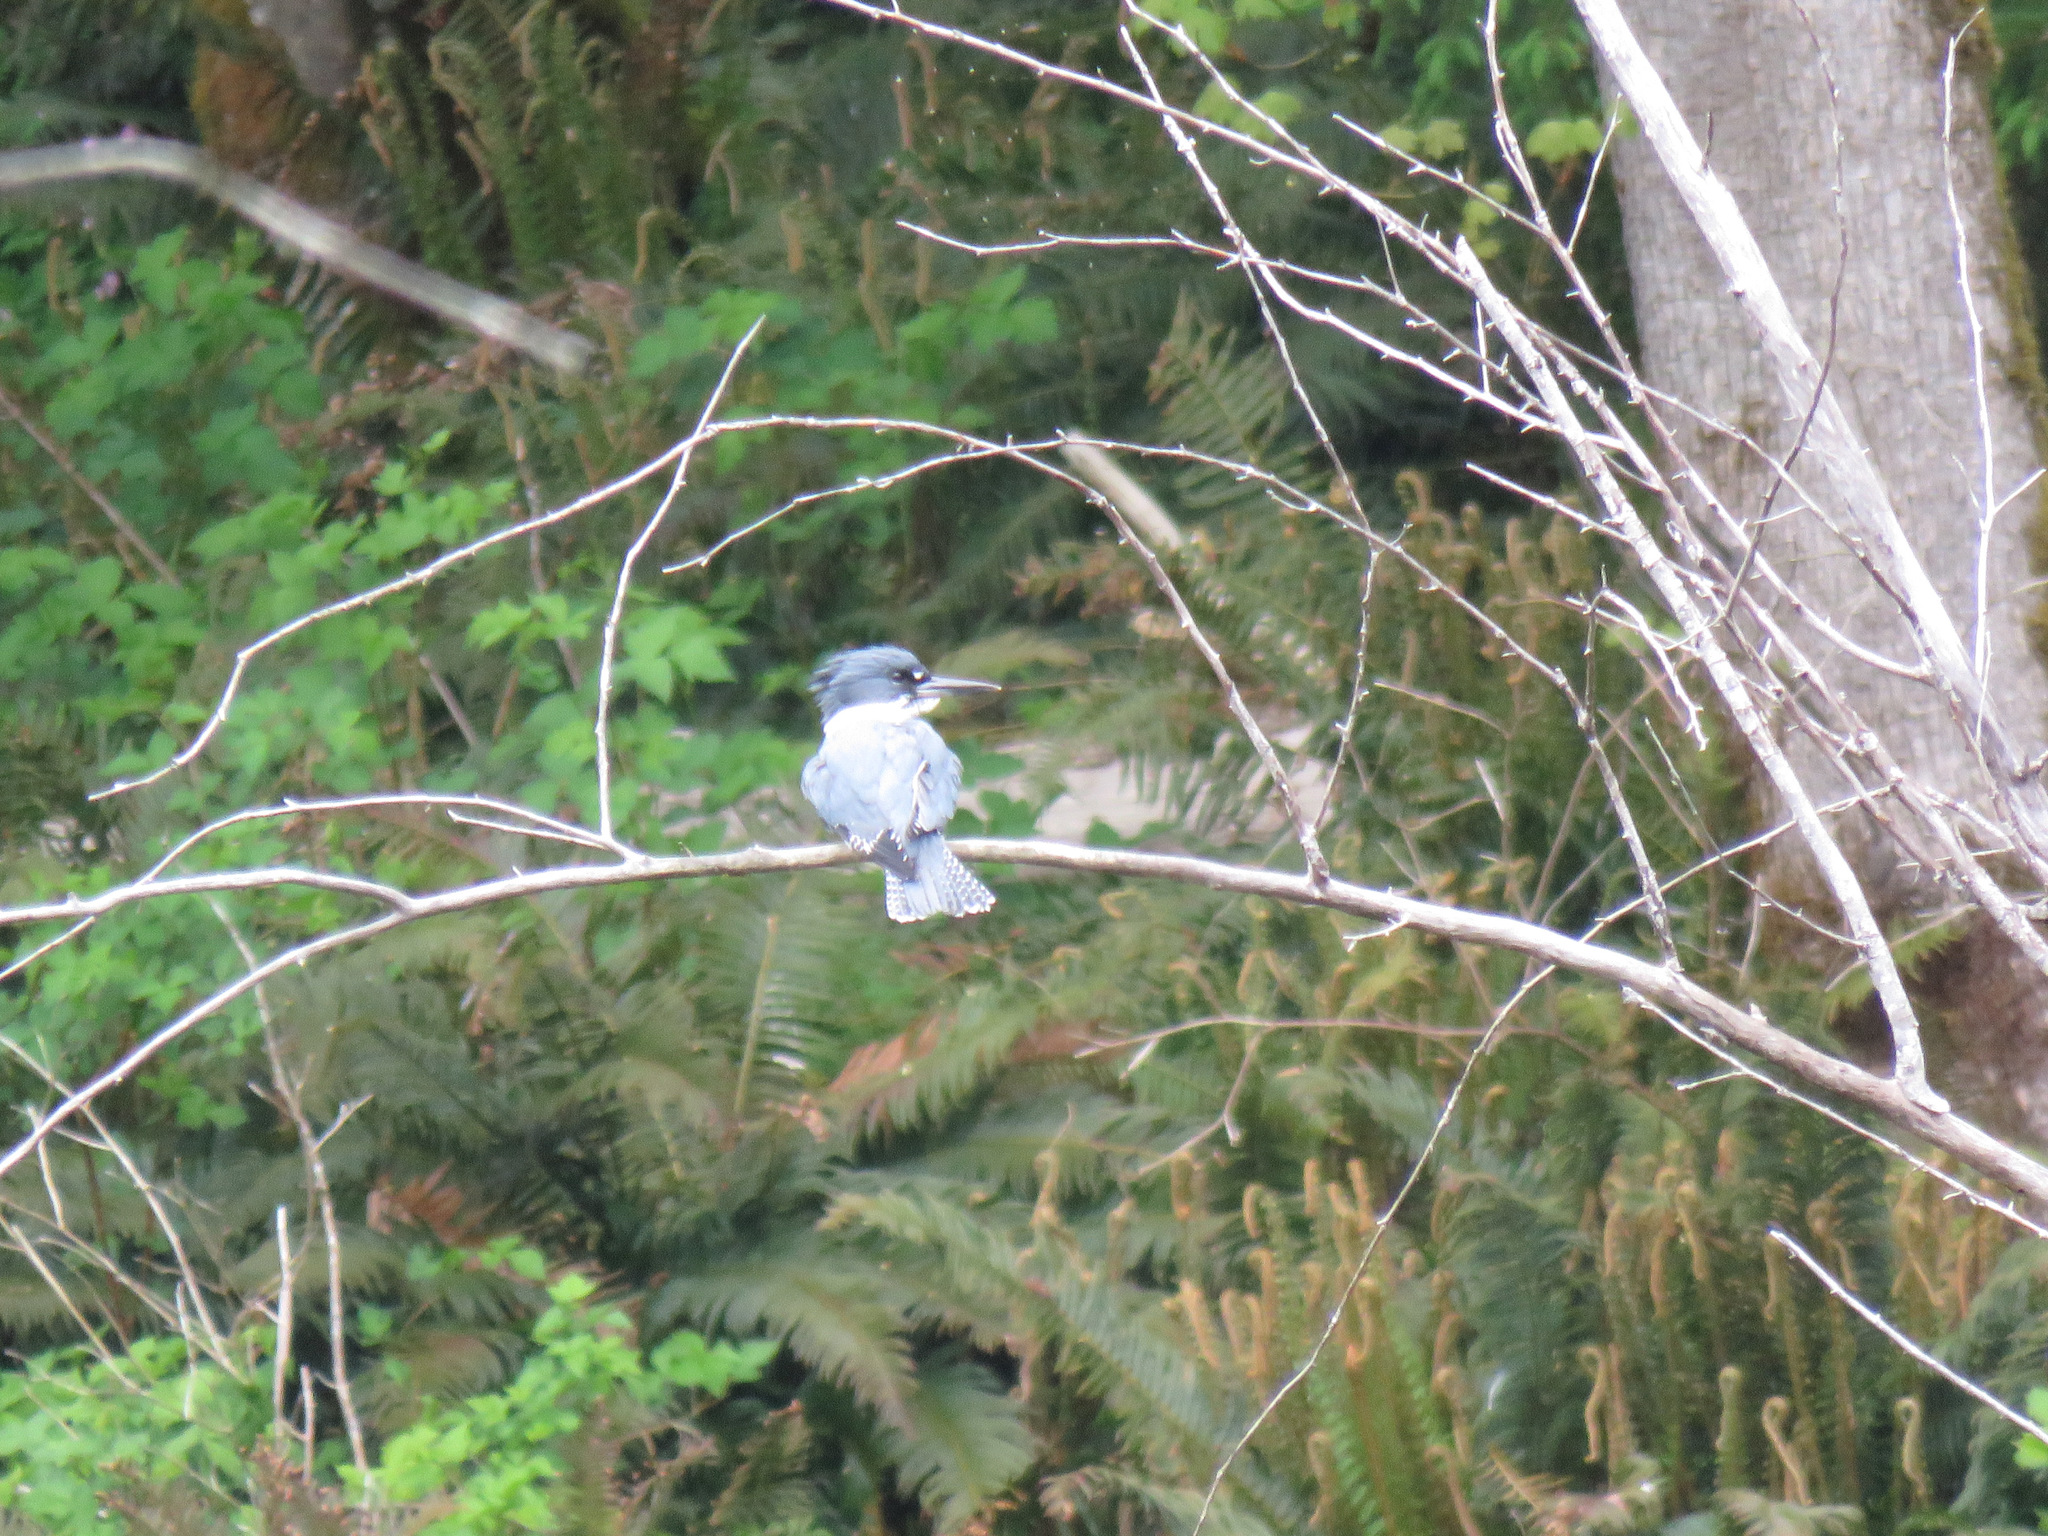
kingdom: Animalia
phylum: Chordata
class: Aves
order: Coraciiformes
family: Alcedinidae
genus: Megaceryle
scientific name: Megaceryle alcyon
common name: Belted kingfisher
